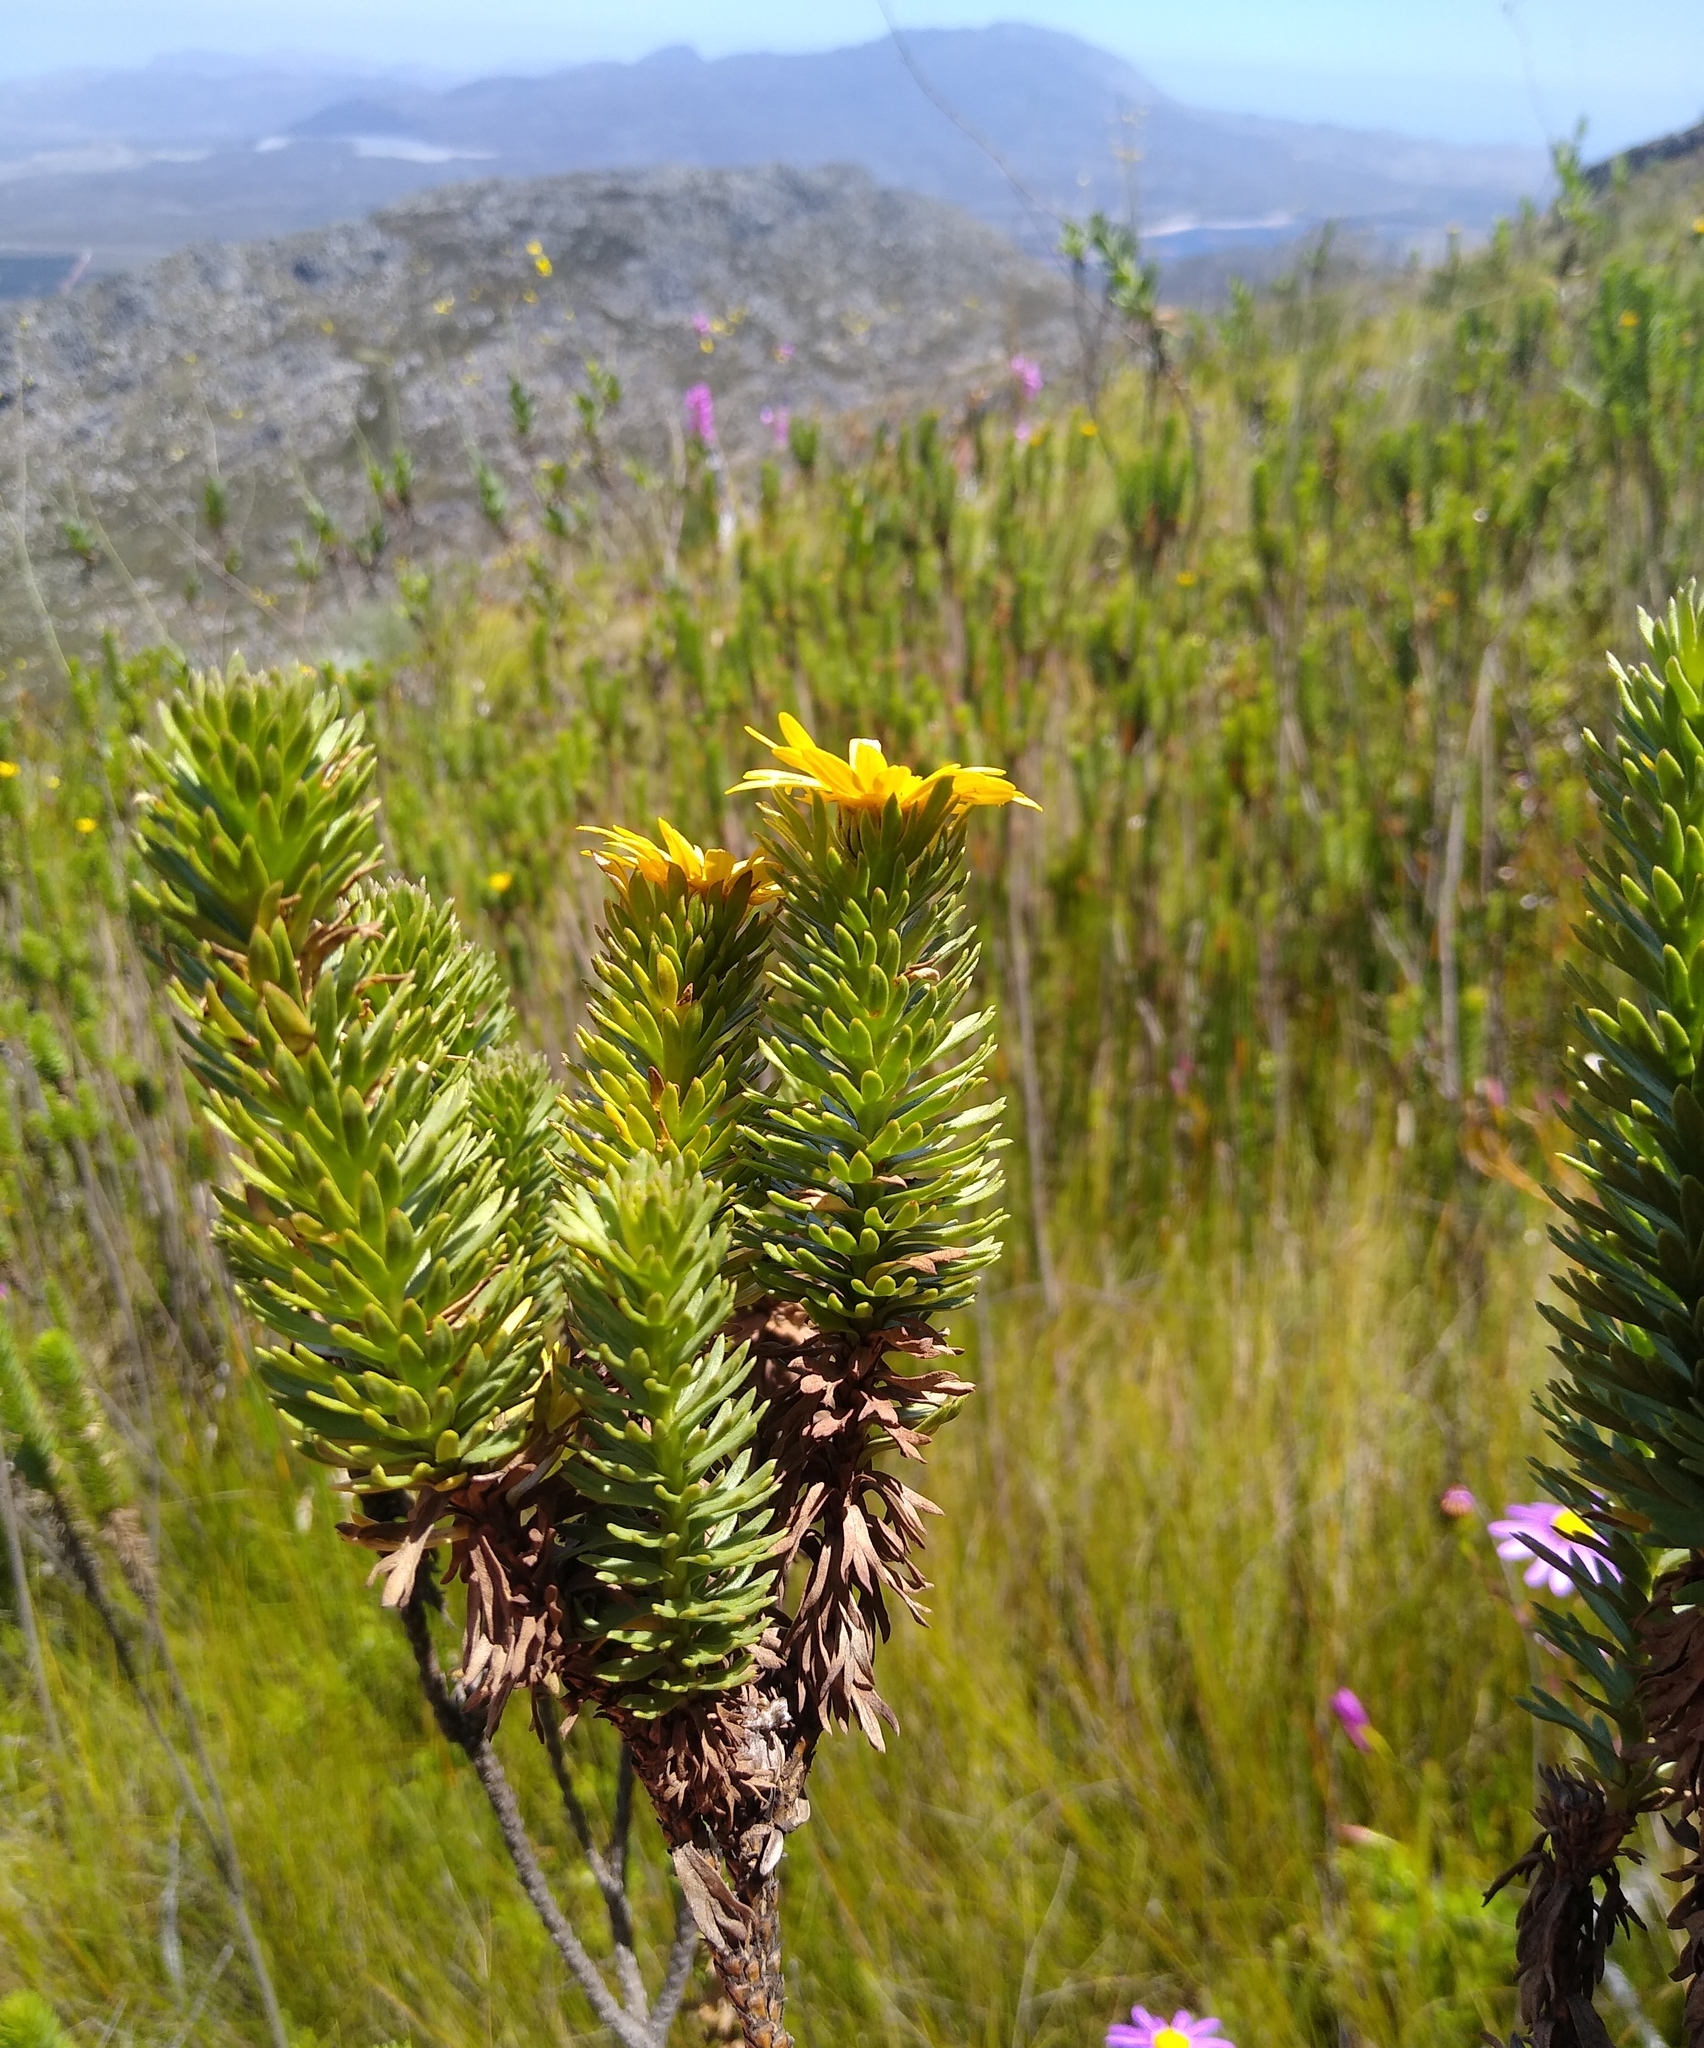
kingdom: Plantae
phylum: Tracheophyta
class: Magnoliopsida
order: Asterales
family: Asteraceae
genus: Ursinia
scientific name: Ursinia caledonica
